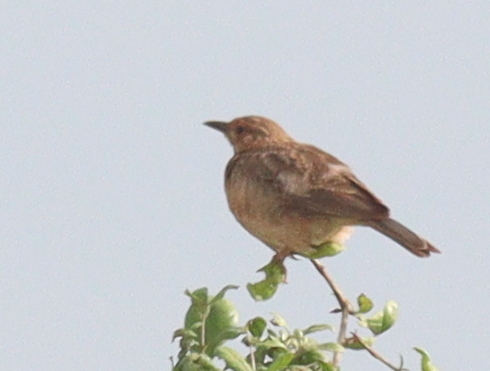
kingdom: Animalia
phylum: Chordata
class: Aves
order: Passeriformes
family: Alaudidae
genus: Calendulauda
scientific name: Calendulauda poecilosterna
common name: Pink-breasted lark
